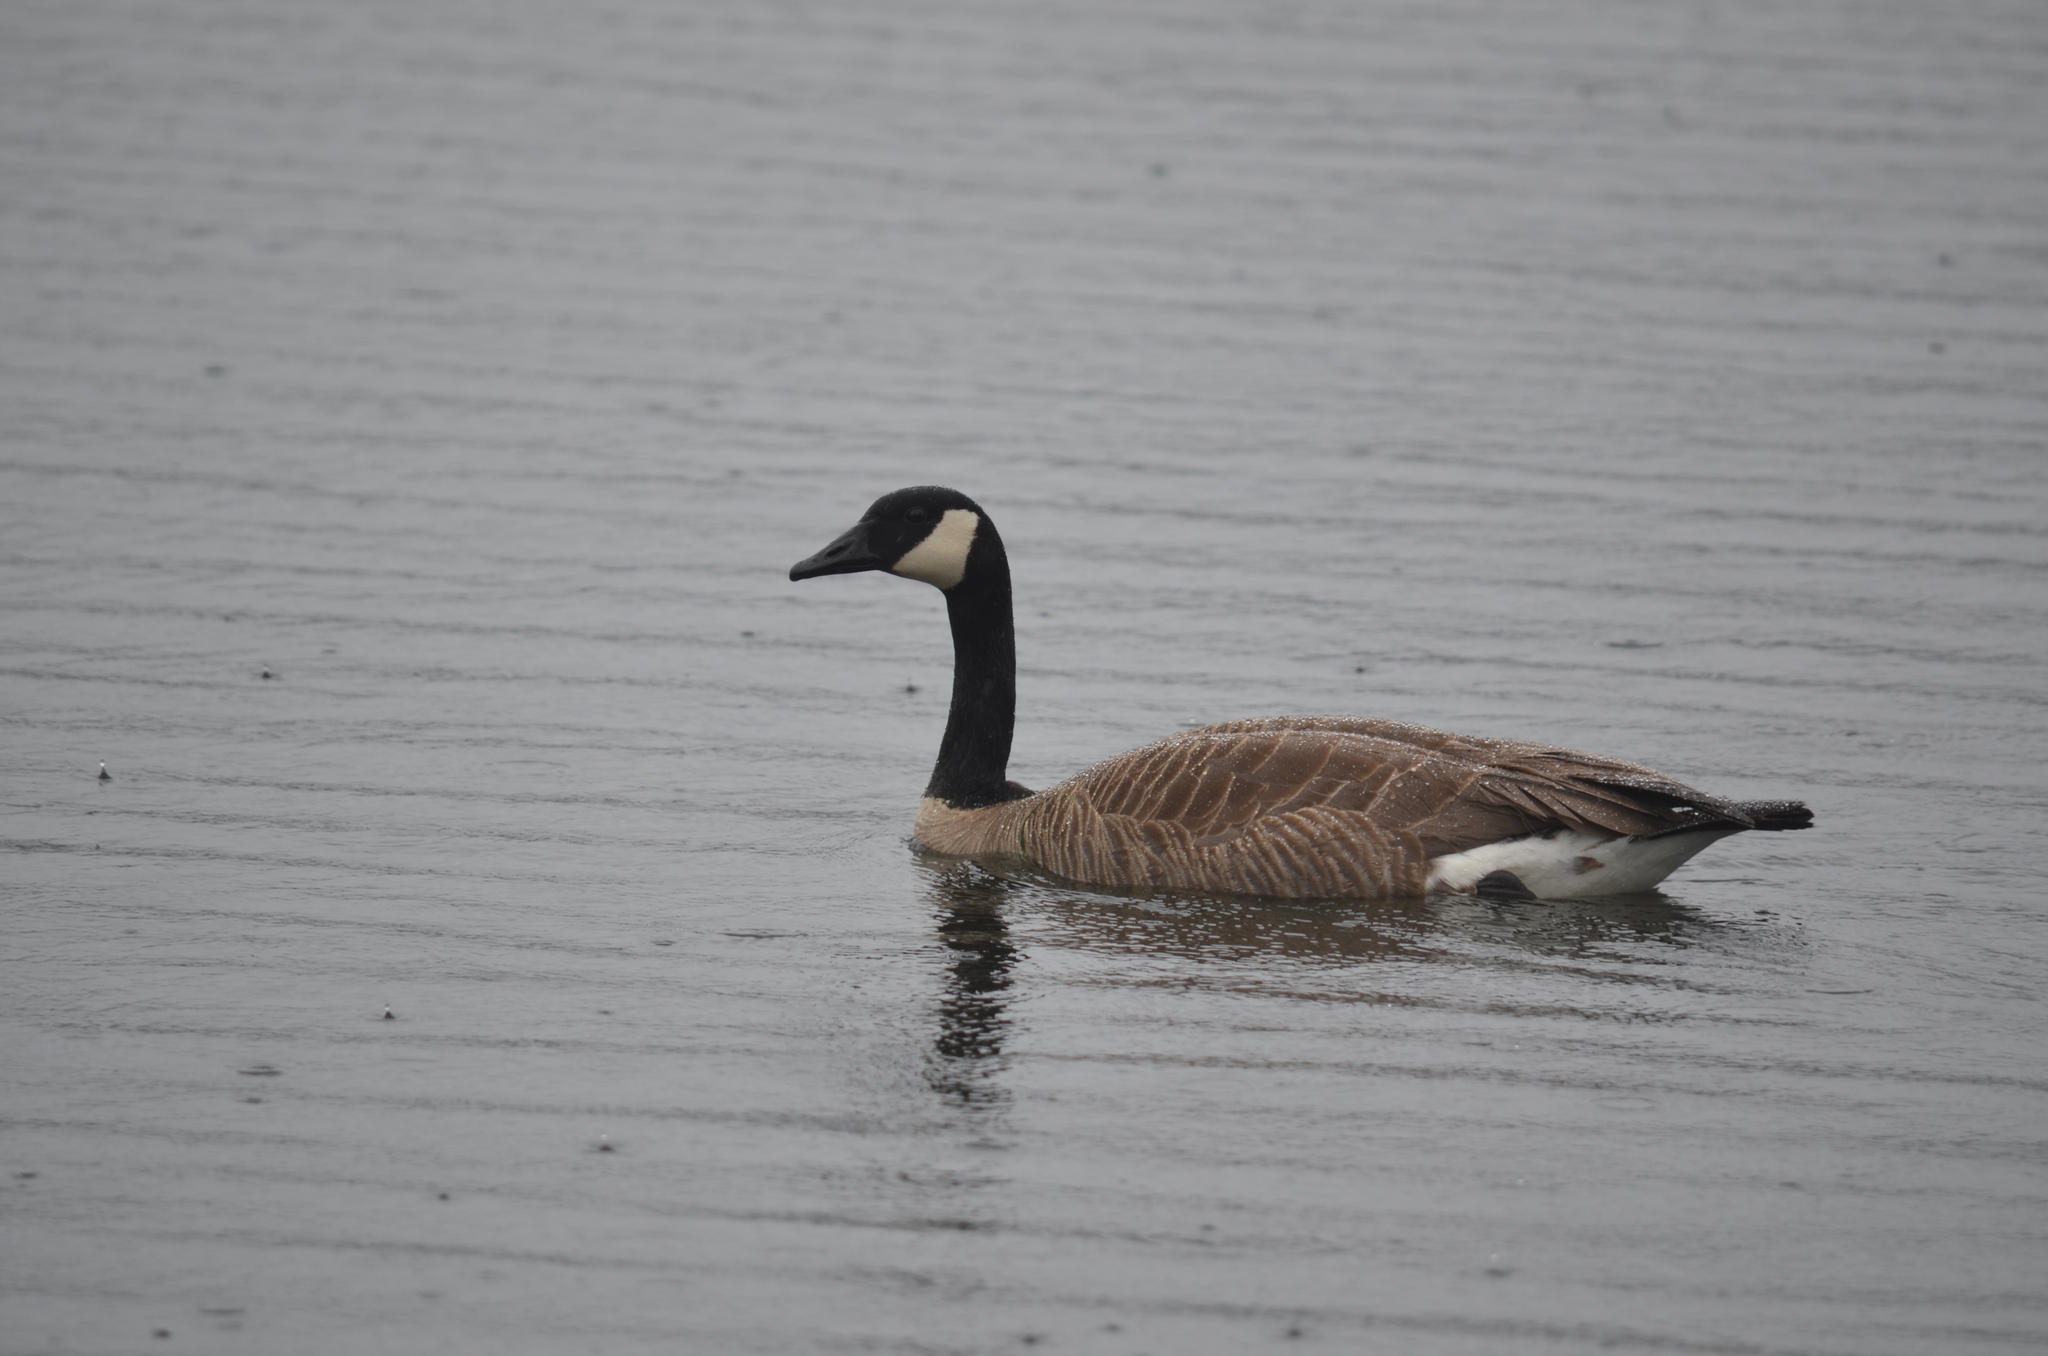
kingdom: Animalia
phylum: Chordata
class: Aves
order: Anseriformes
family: Anatidae
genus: Branta
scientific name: Branta canadensis
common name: Canada goose
